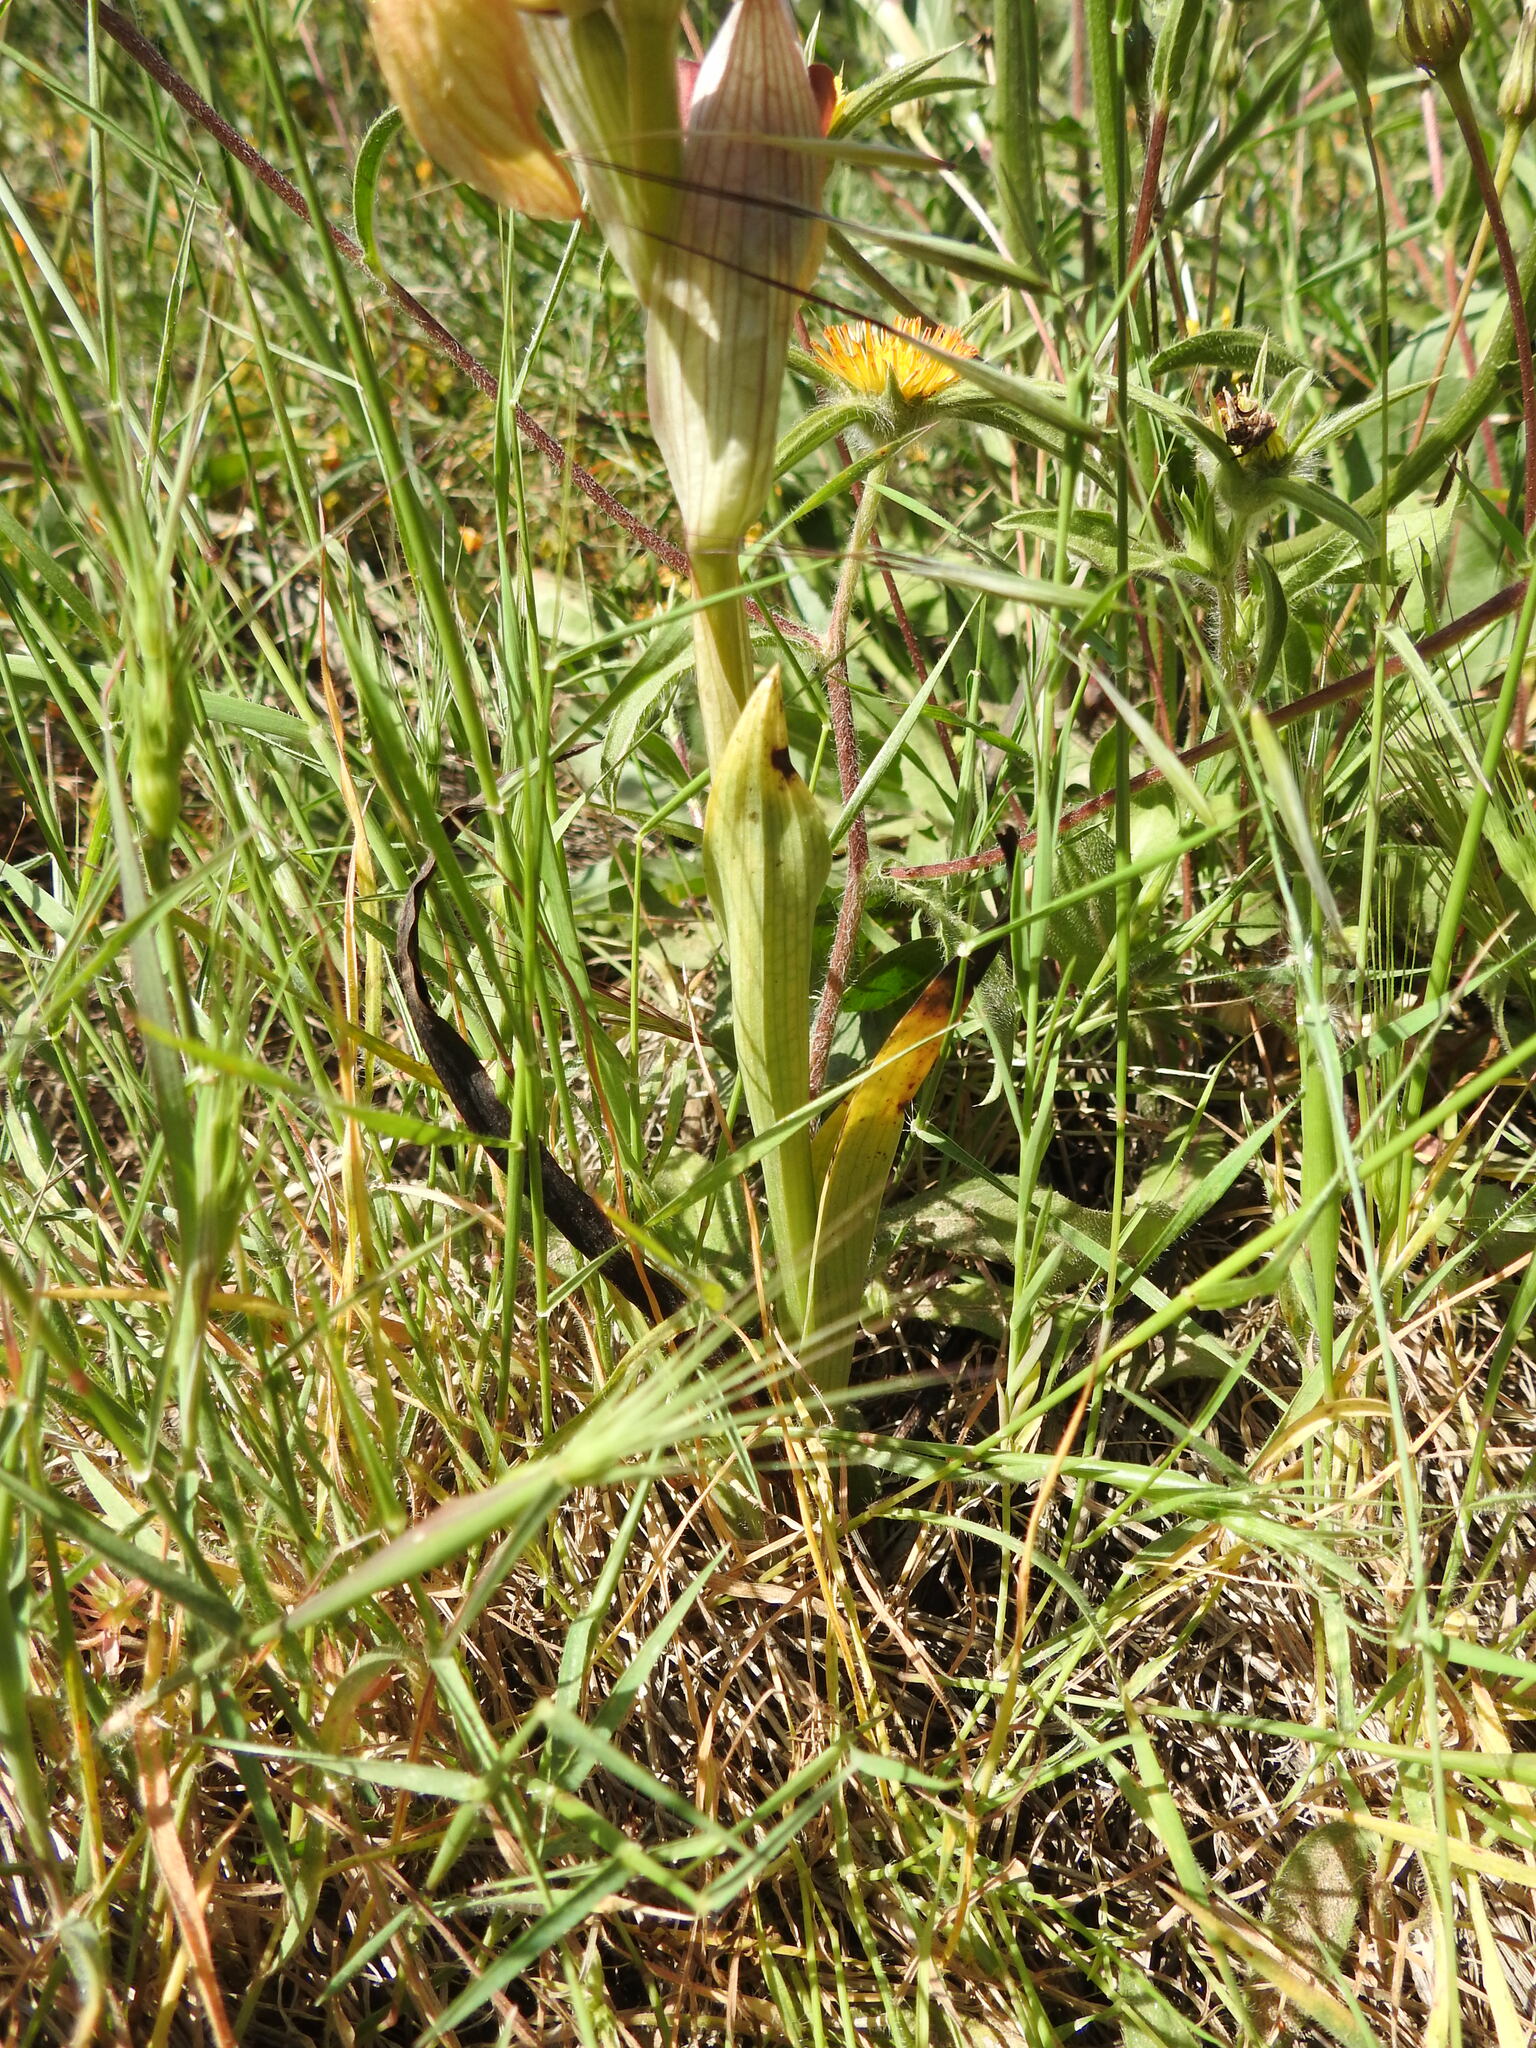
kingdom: Plantae
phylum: Tracheophyta
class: Liliopsida
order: Asparagales
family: Orchidaceae
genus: Serapias
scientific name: Serapias orientalis
